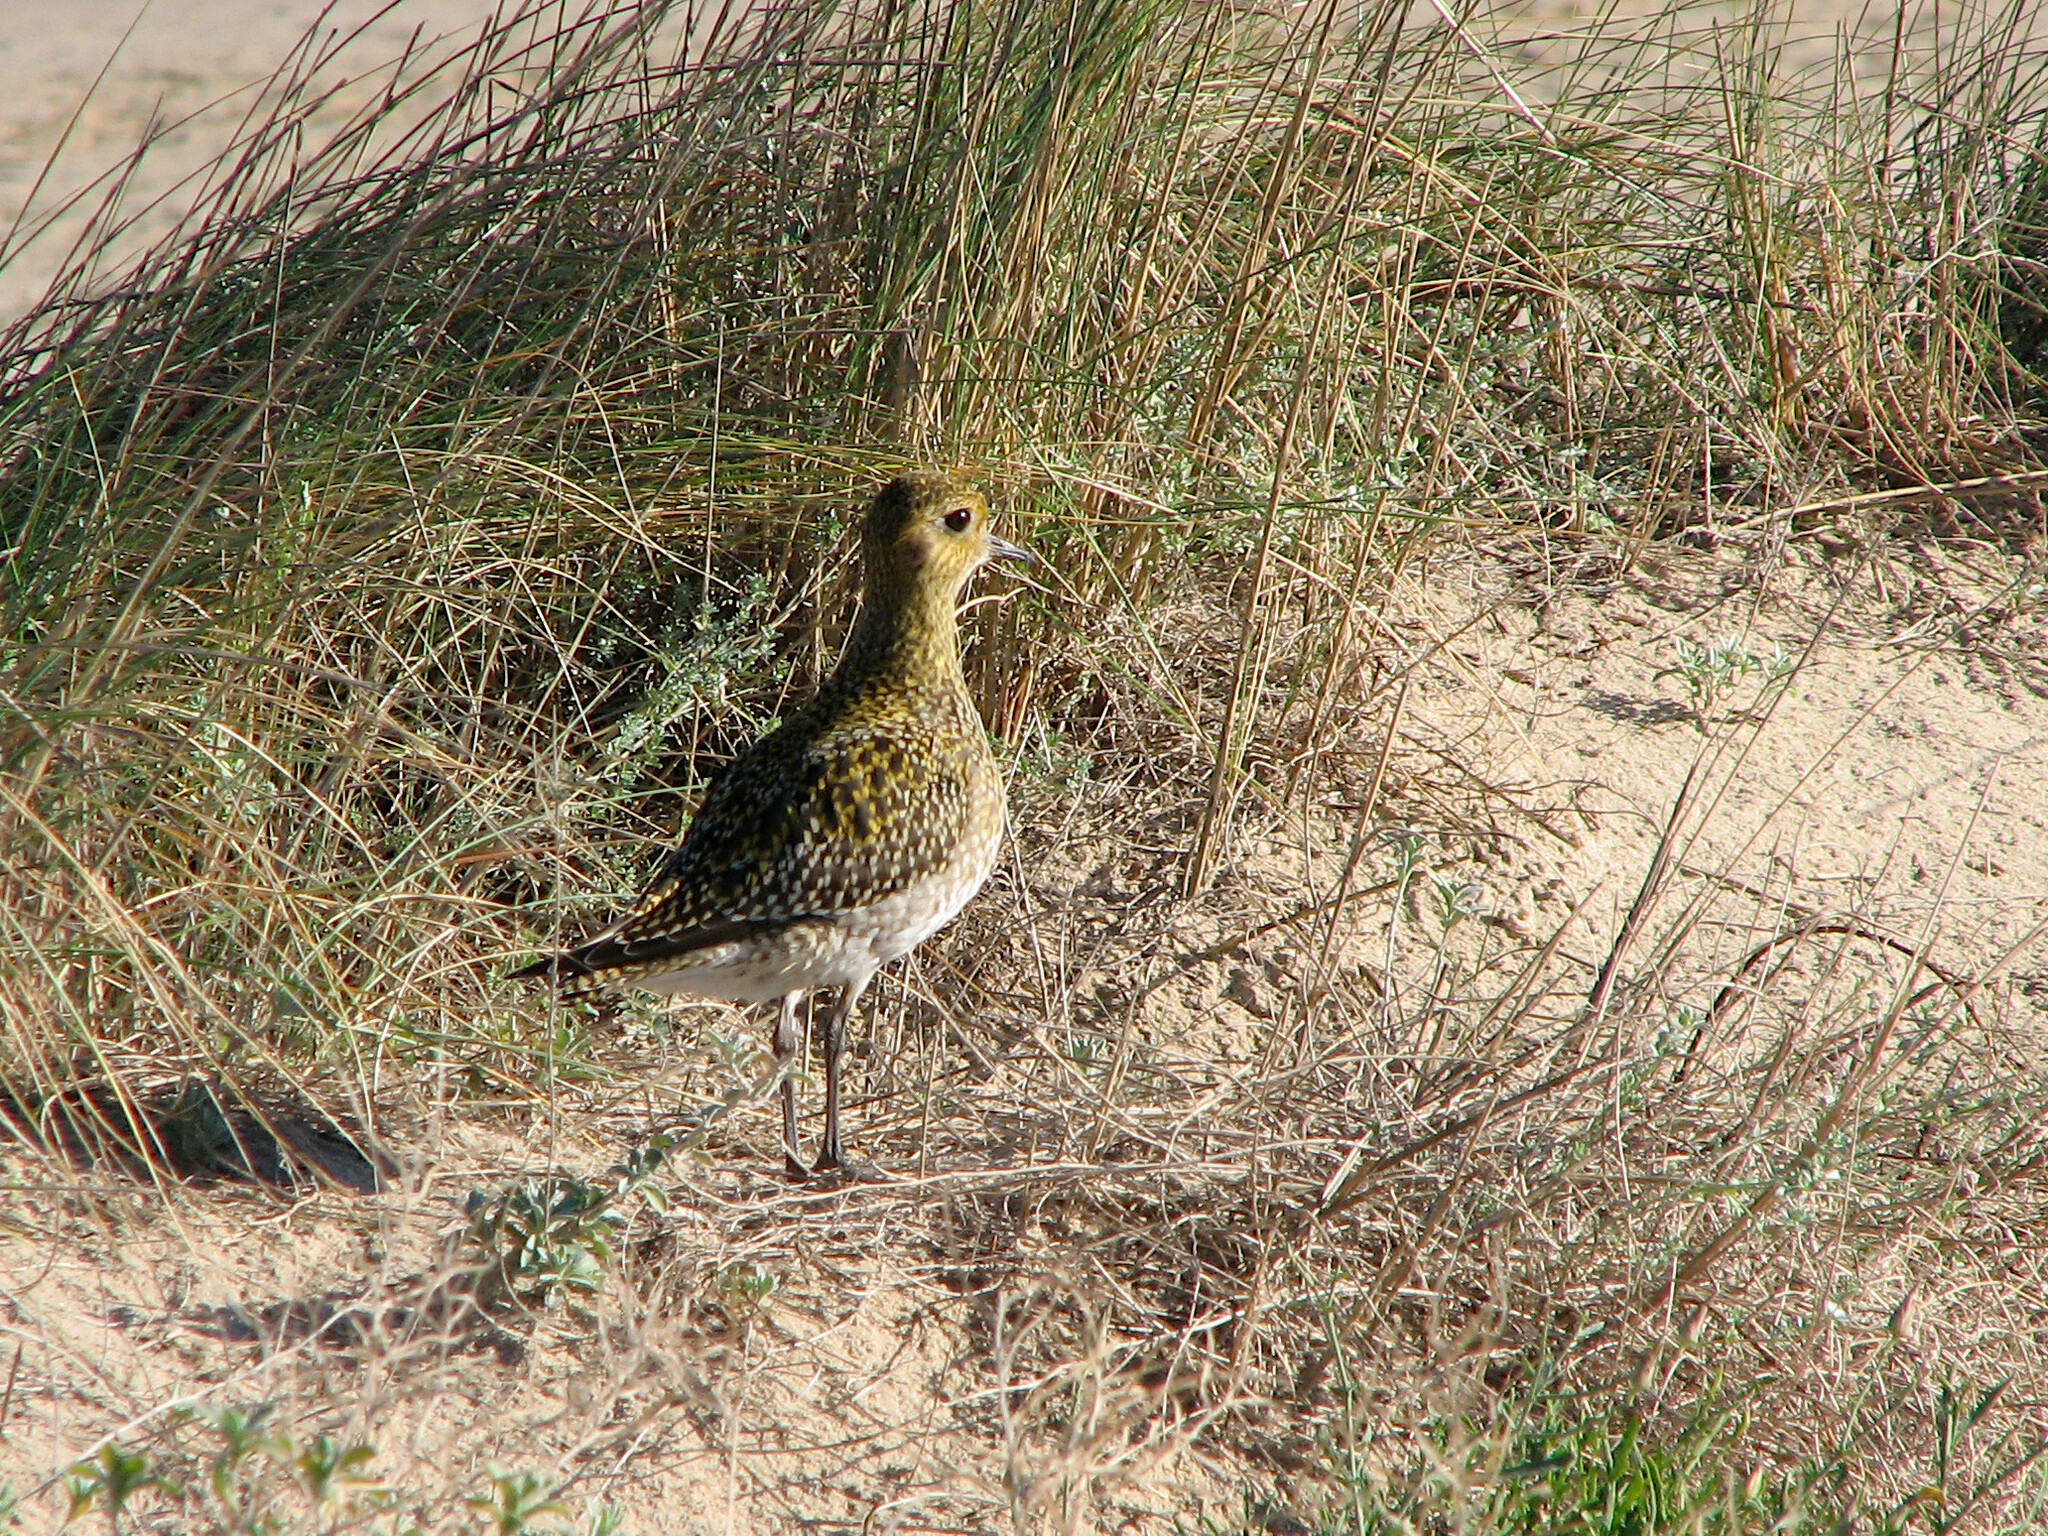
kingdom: Animalia
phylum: Chordata
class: Aves
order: Charadriiformes
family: Charadriidae
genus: Pluvialis
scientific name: Pluvialis apricaria
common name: European golden plover
